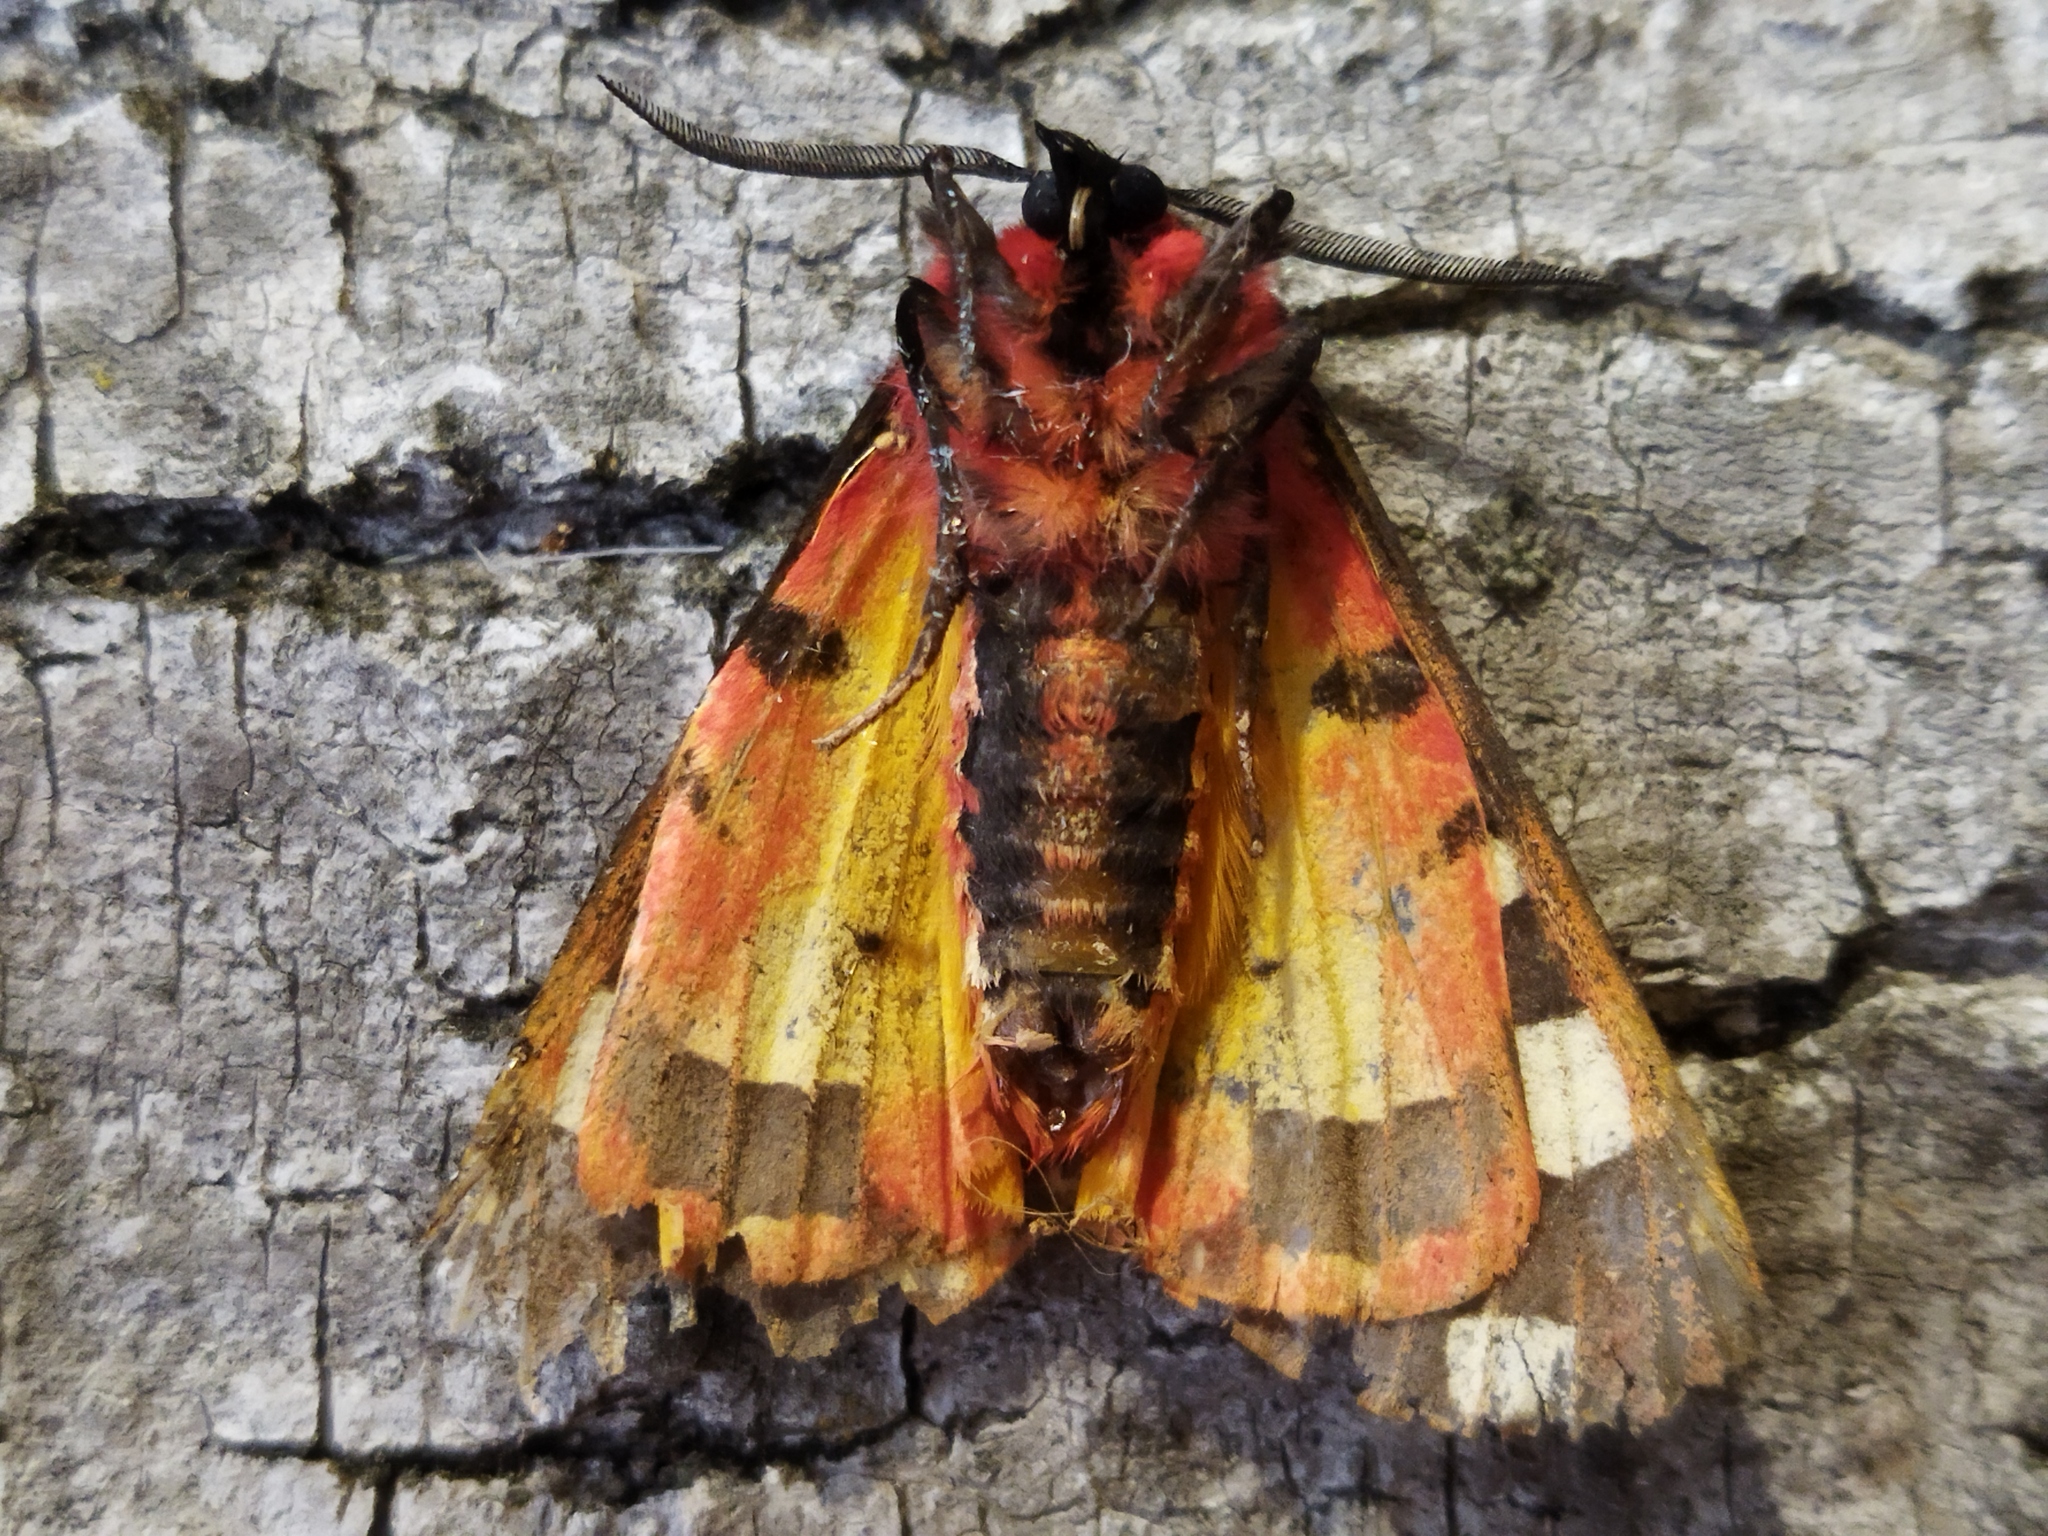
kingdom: Animalia
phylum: Arthropoda
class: Insecta
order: Lepidoptera
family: Erebidae
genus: Epicallia
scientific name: Epicallia villica
